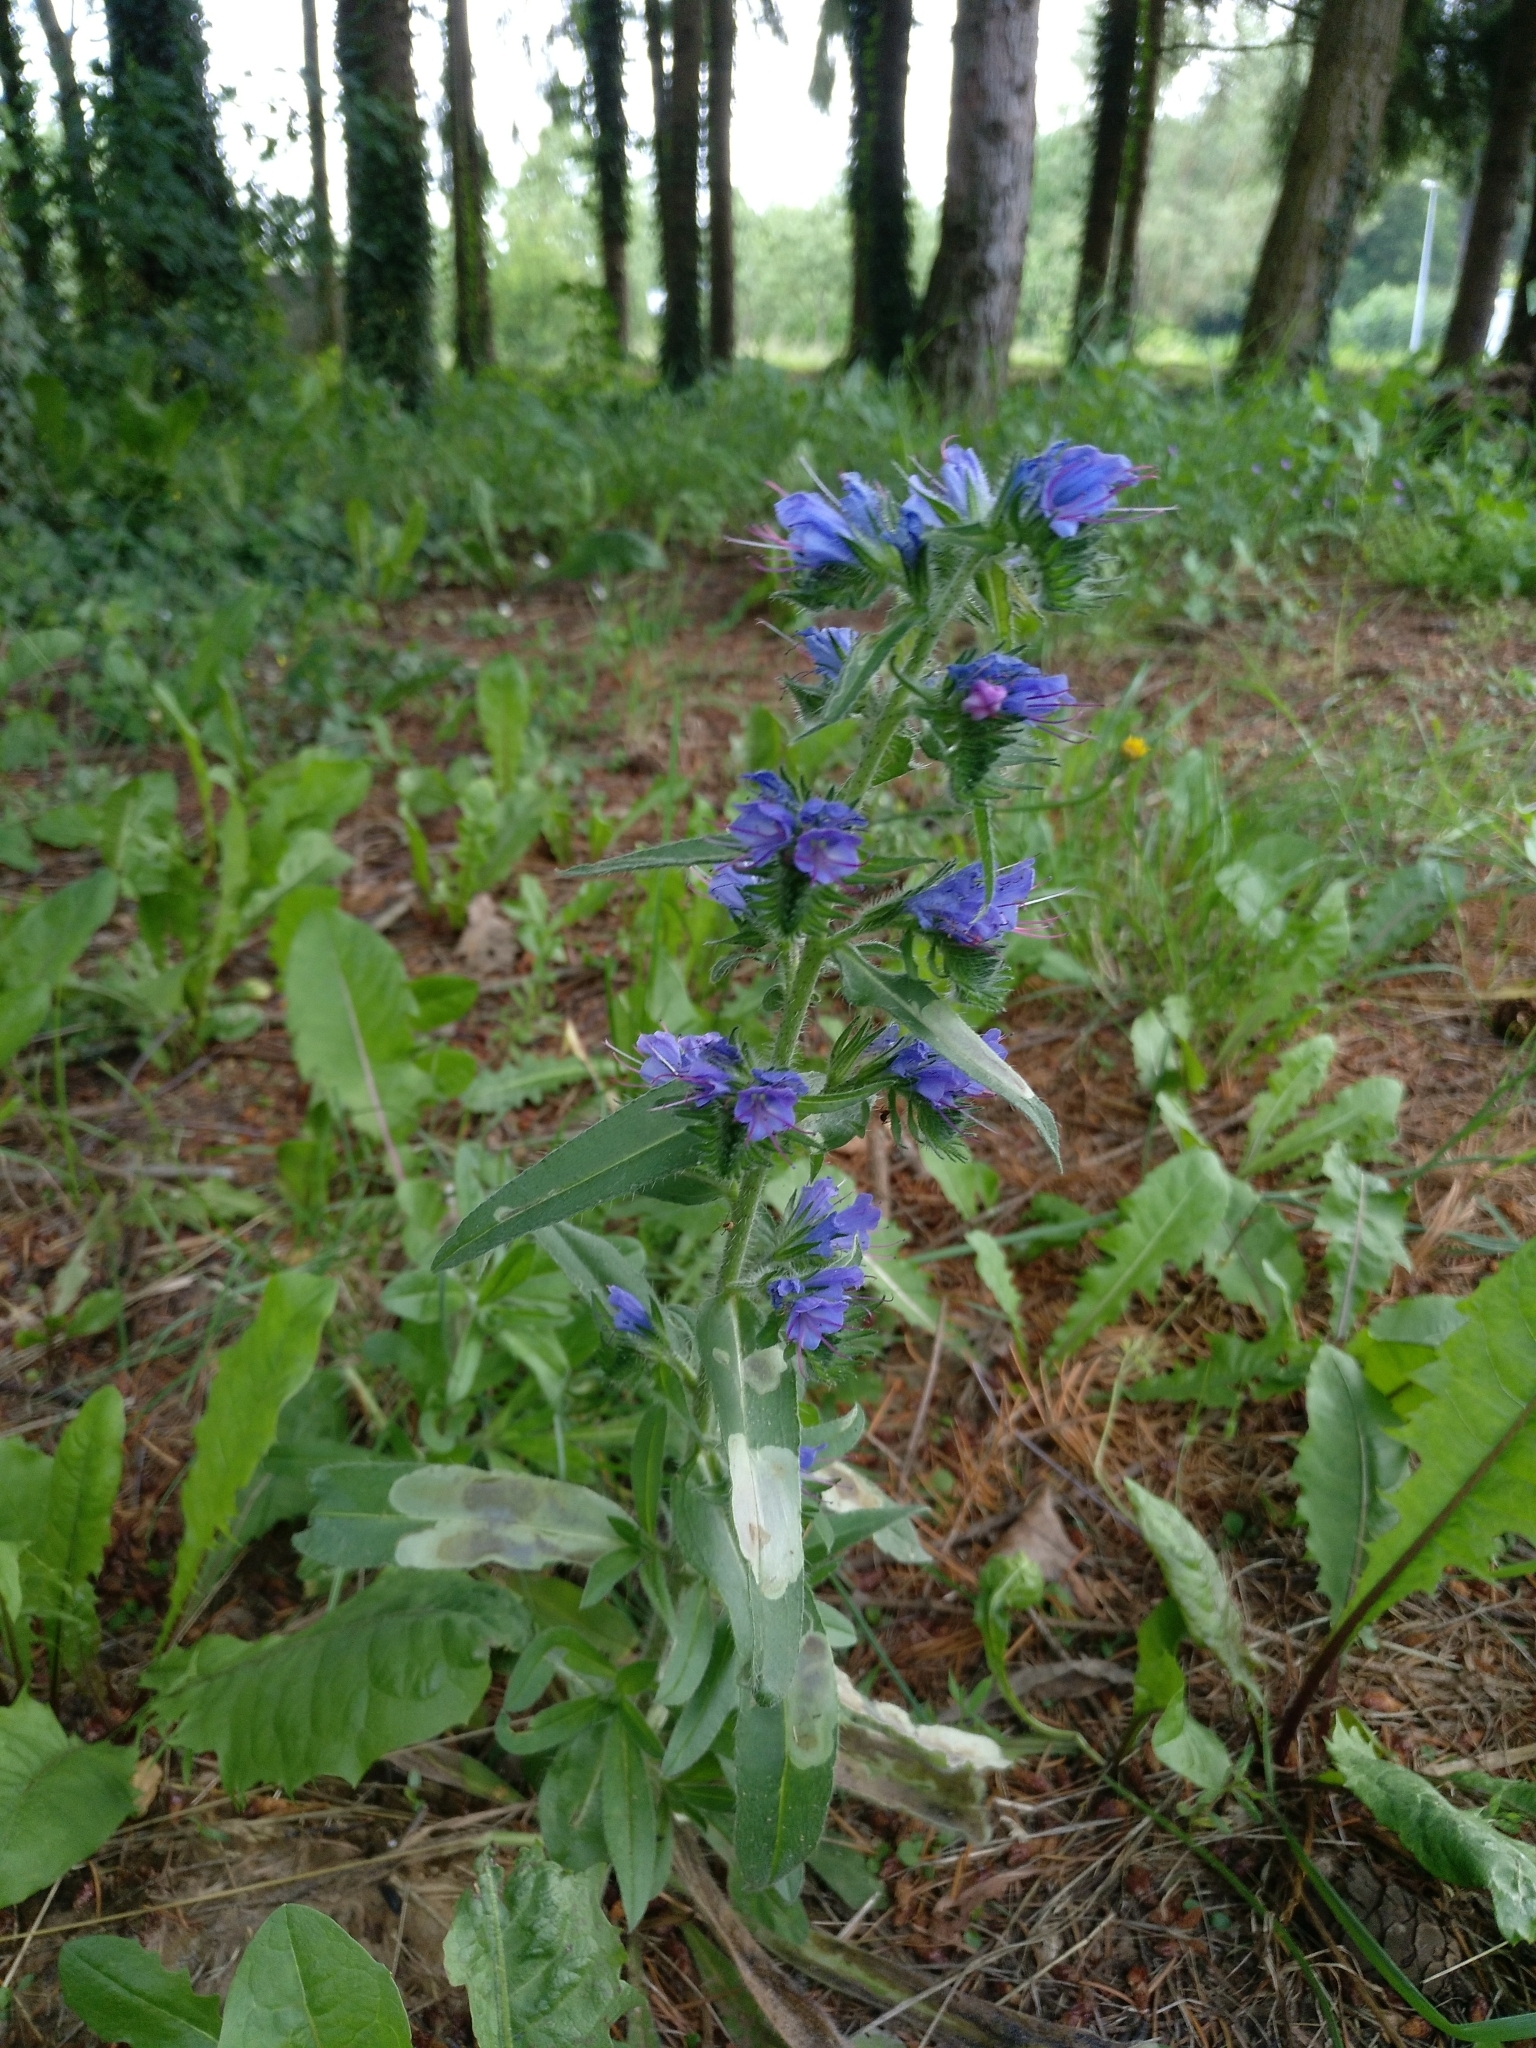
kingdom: Plantae
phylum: Tracheophyta
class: Magnoliopsida
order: Boraginales
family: Boraginaceae
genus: Echium
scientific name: Echium vulgare
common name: Common viper's bugloss
